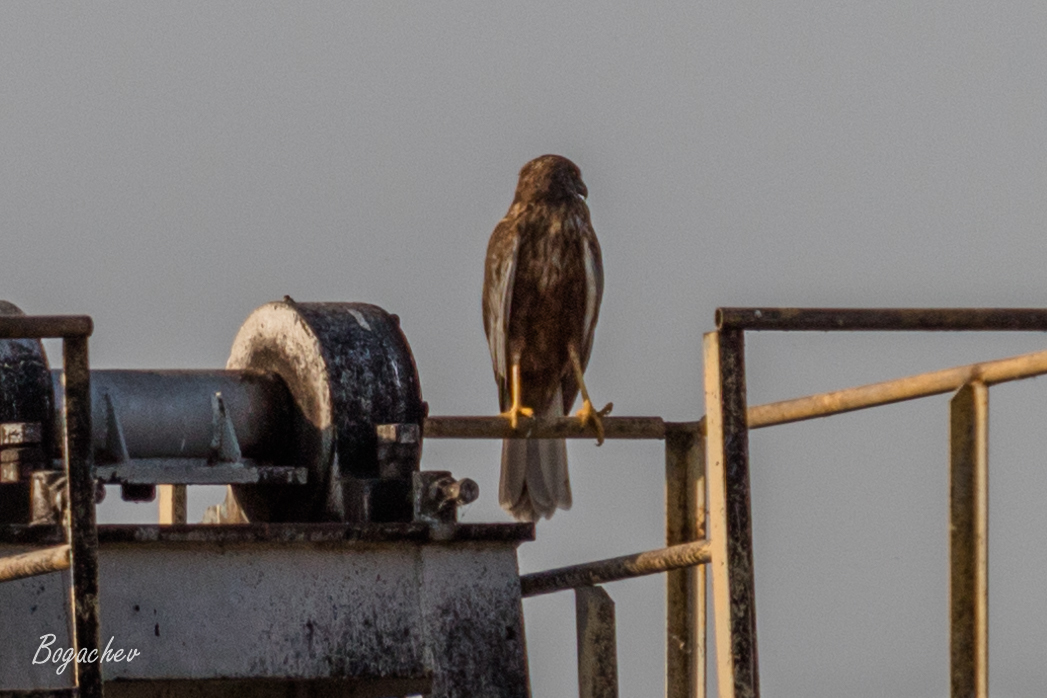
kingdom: Animalia
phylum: Chordata
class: Aves
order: Accipitriformes
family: Accipitridae
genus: Circus
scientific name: Circus aeruginosus
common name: Western marsh harrier
